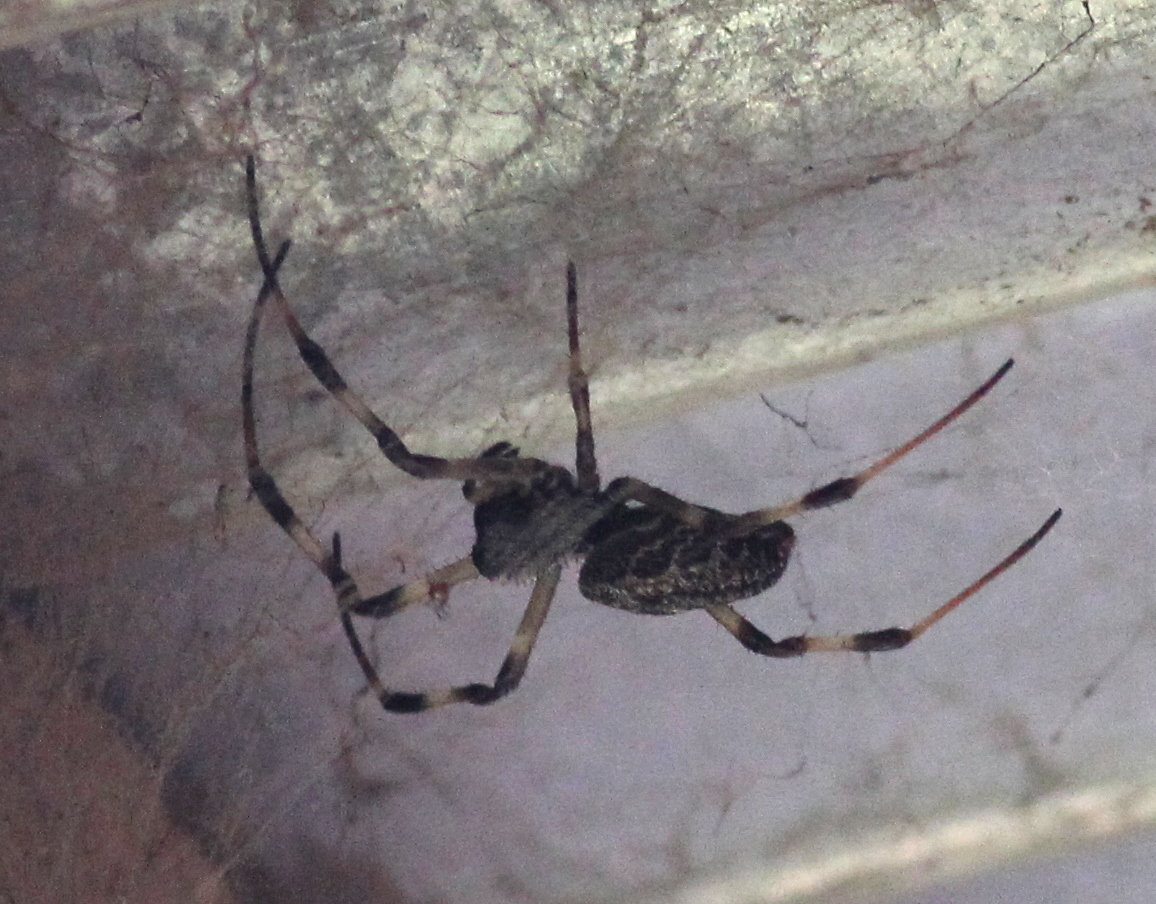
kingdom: Animalia
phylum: Arthropoda
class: Arachnida
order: Araneae
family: Araneidae
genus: Nephilengys
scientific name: Nephilengys malabarensis
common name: Asian hermit spider
